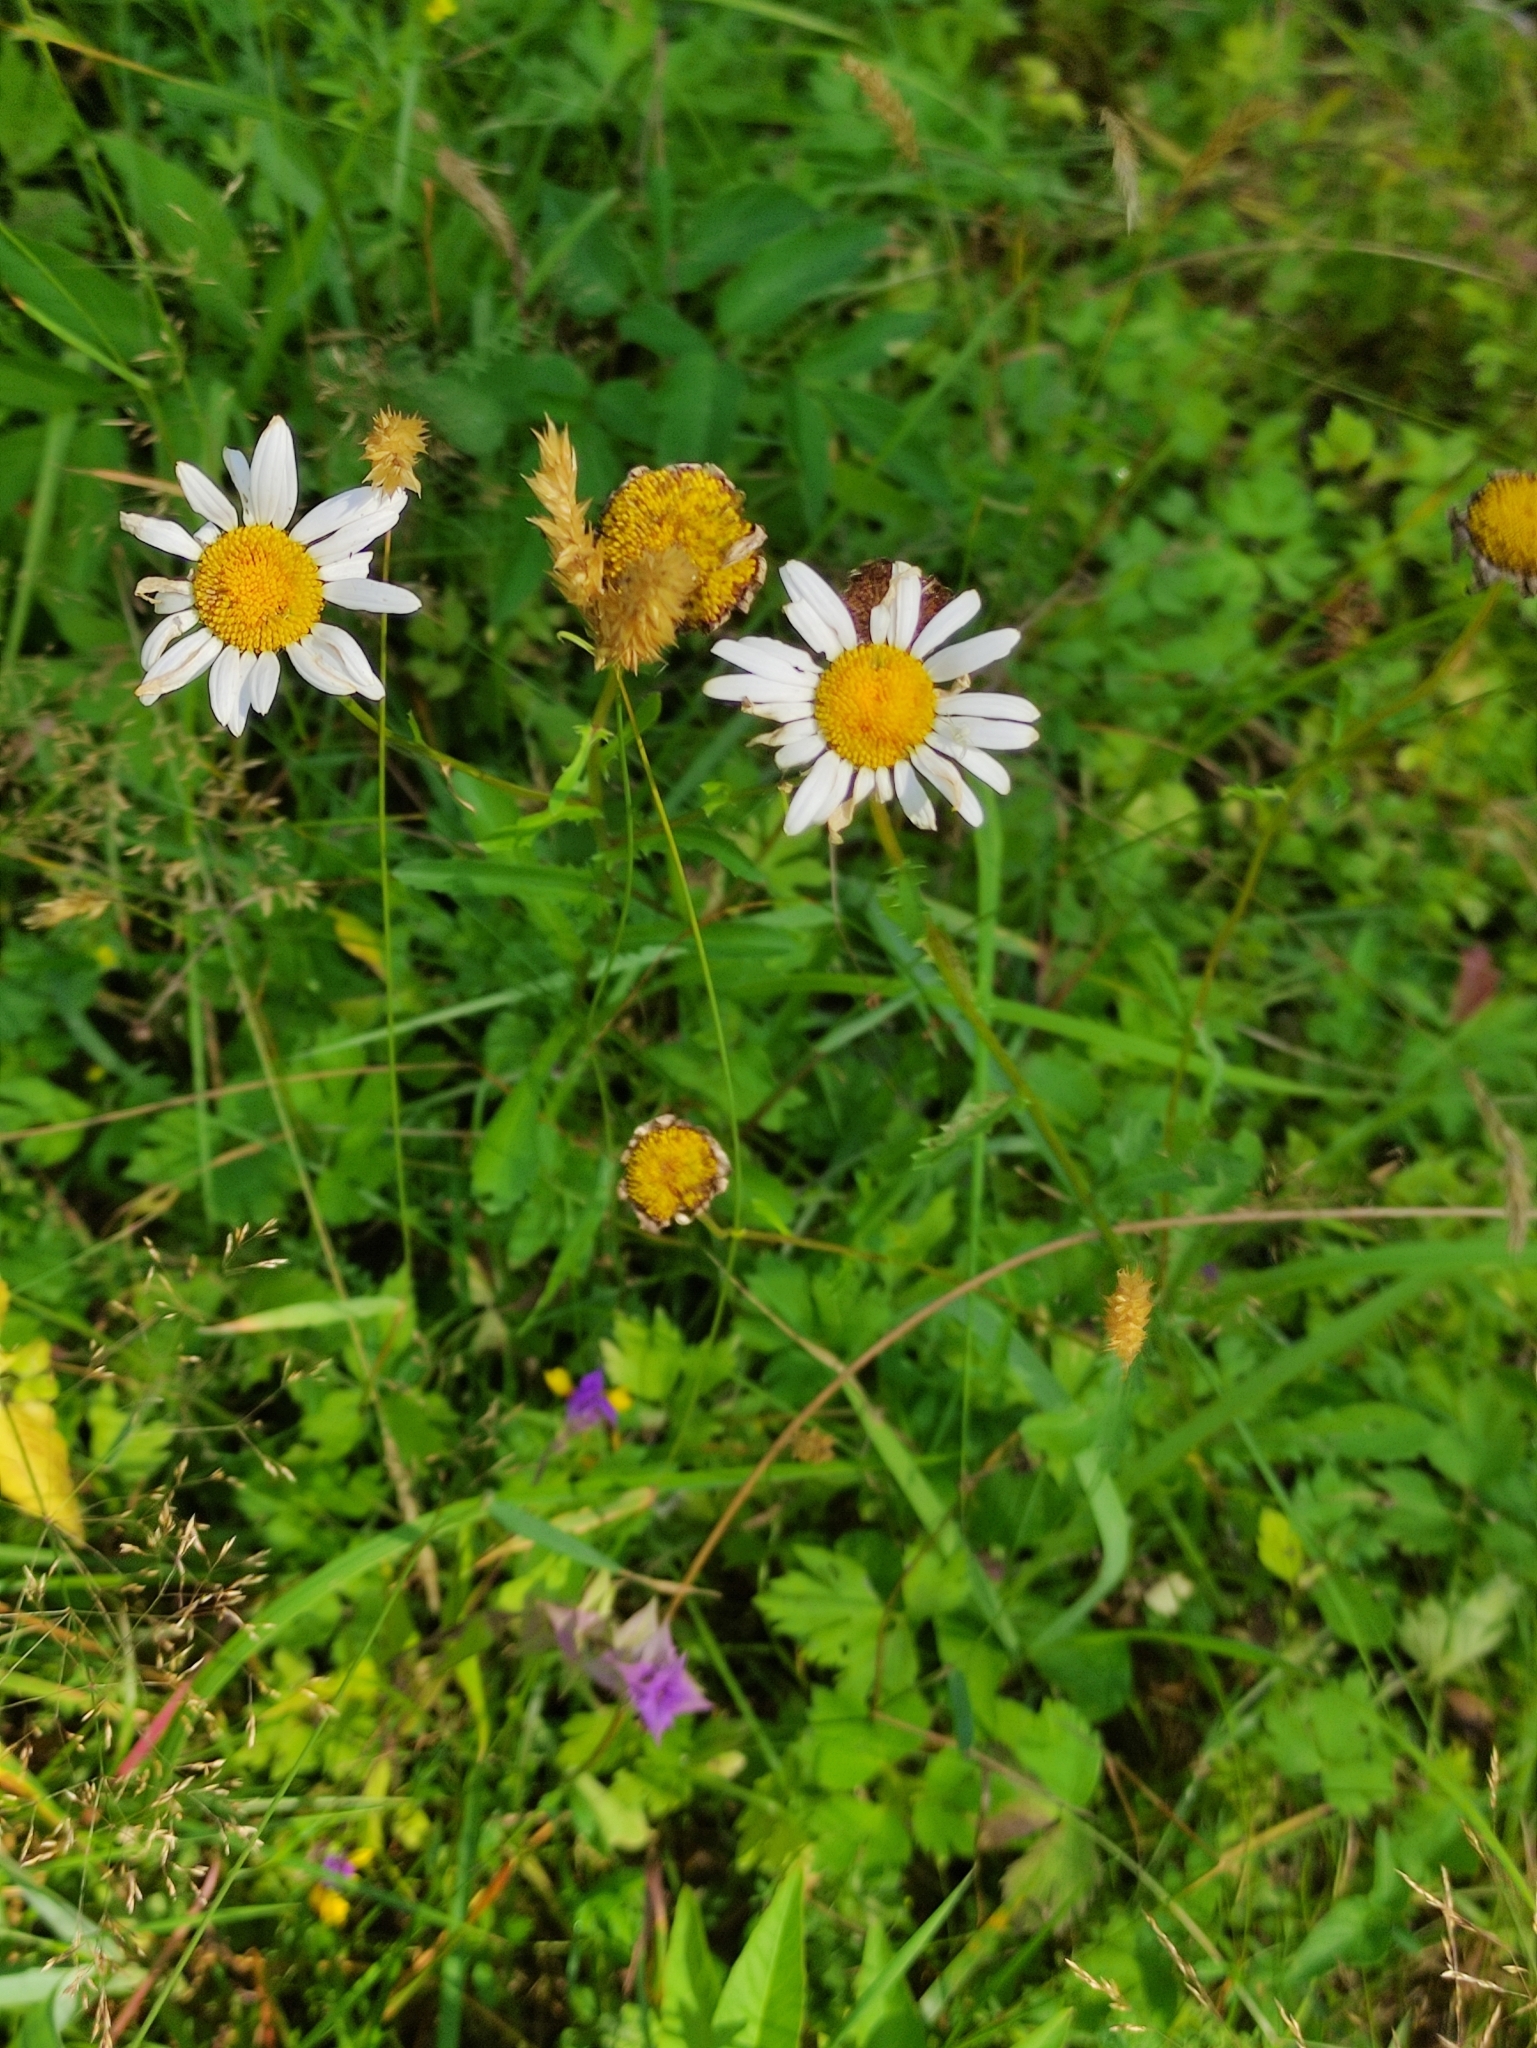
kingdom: Plantae
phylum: Tracheophyta
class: Magnoliopsida
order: Asterales
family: Asteraceae
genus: Leucanthemum
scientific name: Leucanthemum vulgare
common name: Oxeye daisy
